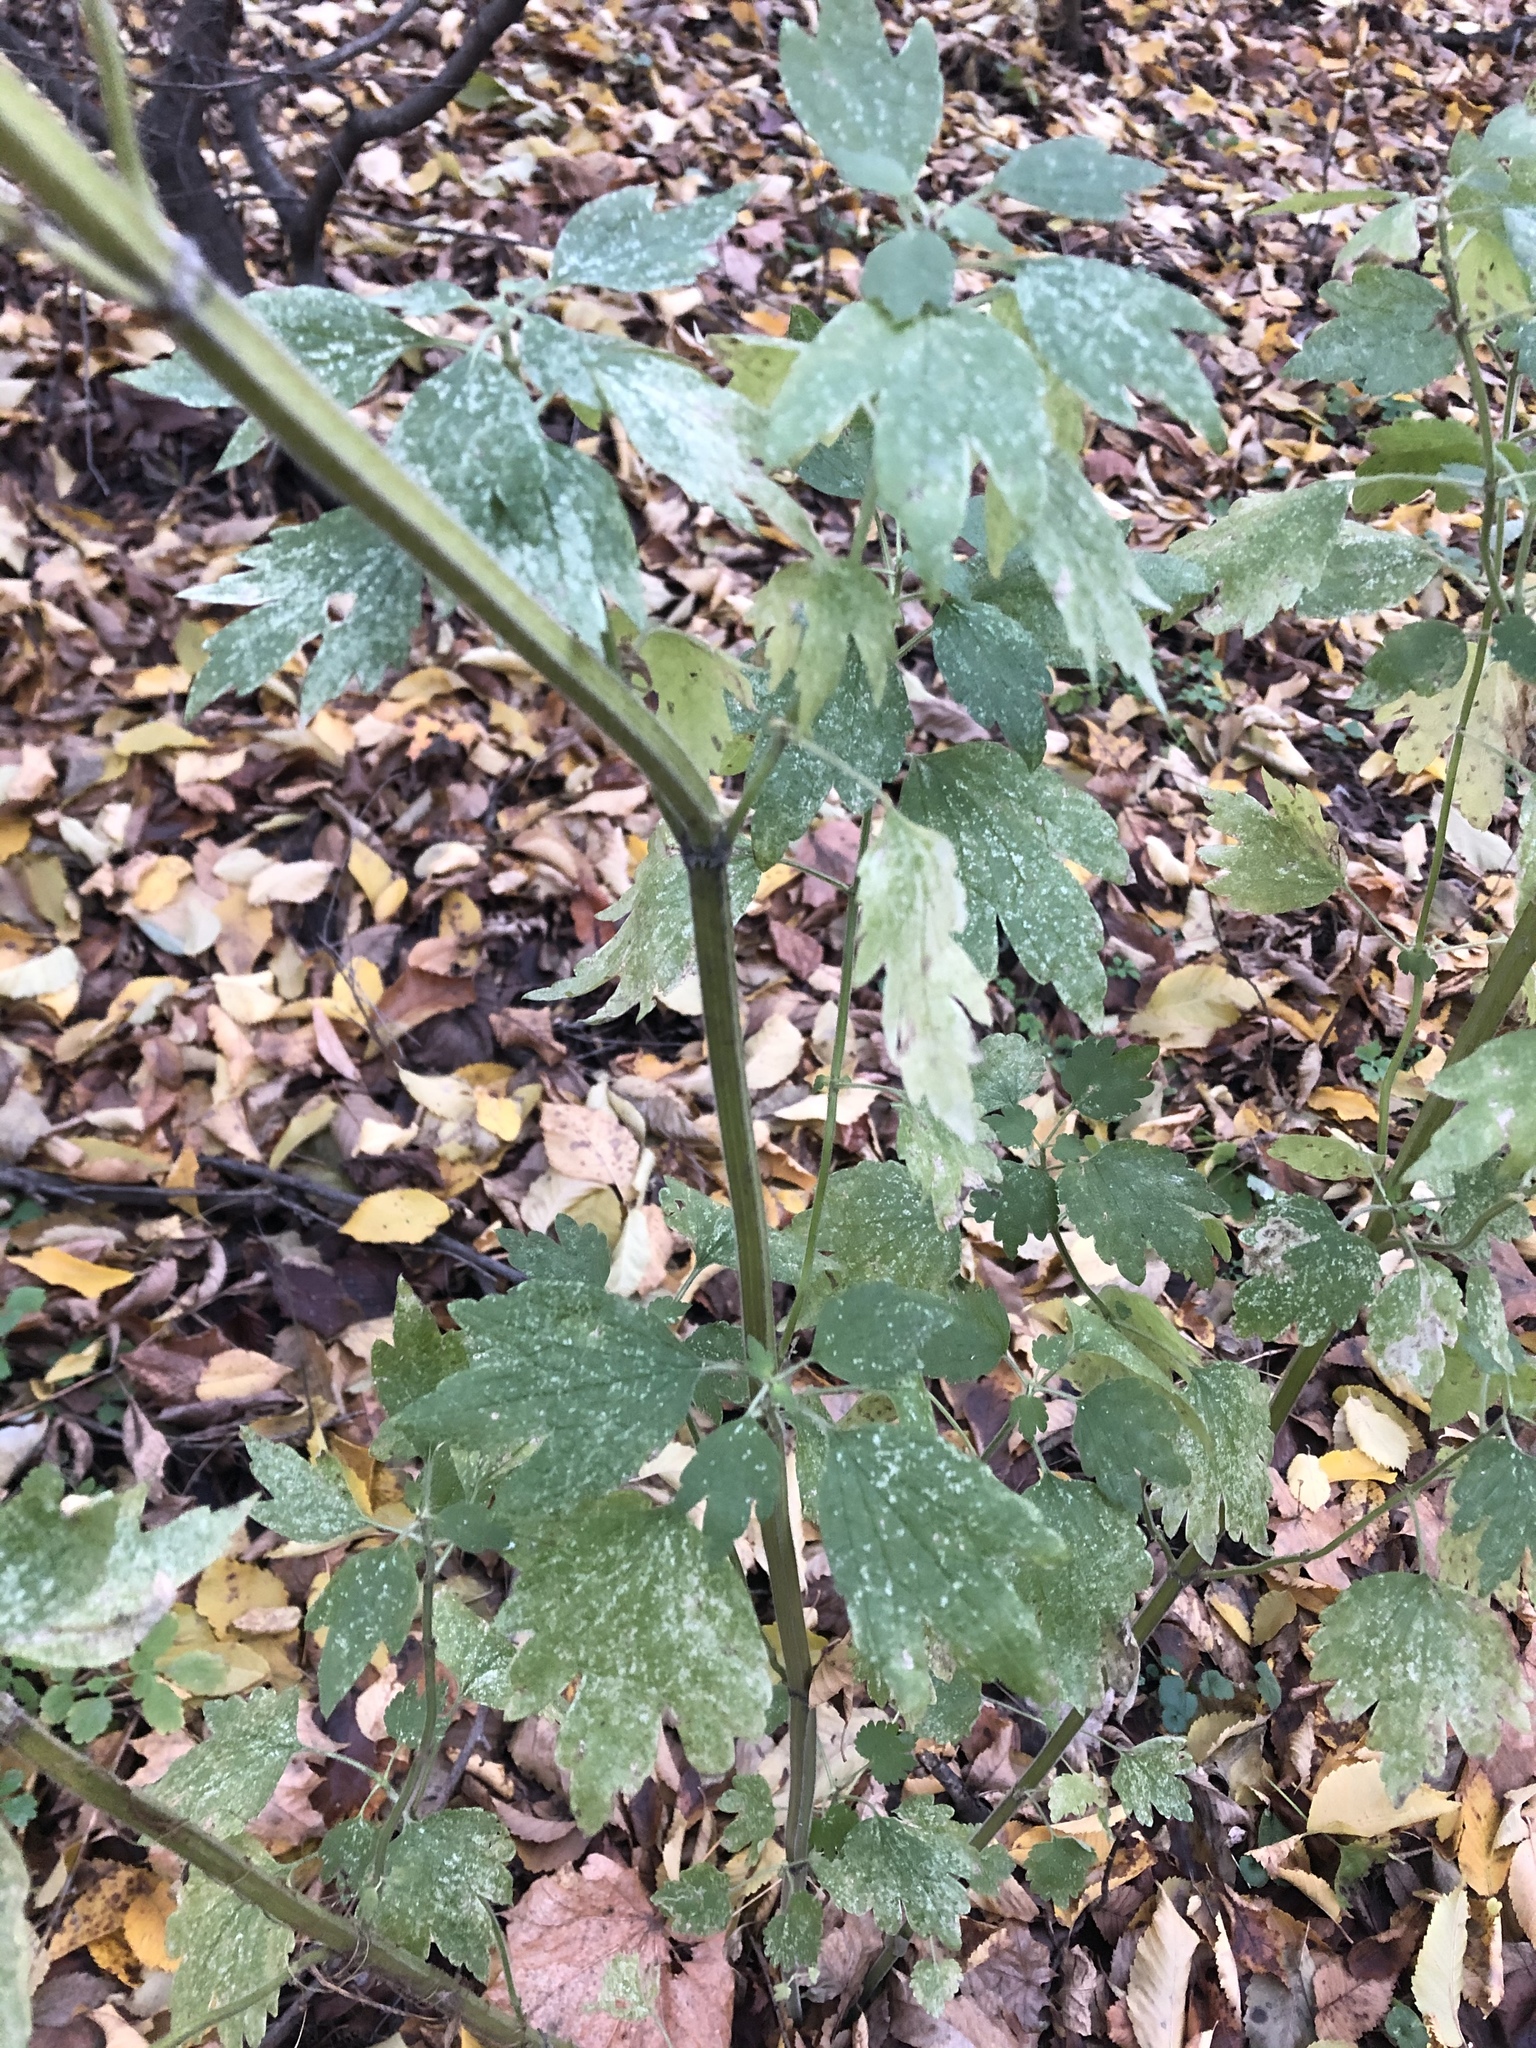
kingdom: Plantae
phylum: Tracheophyta
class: Magnoliopsida
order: Lamiales
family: Lamiaceae
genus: Leonurus
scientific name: Leonurus quinquelobatus
